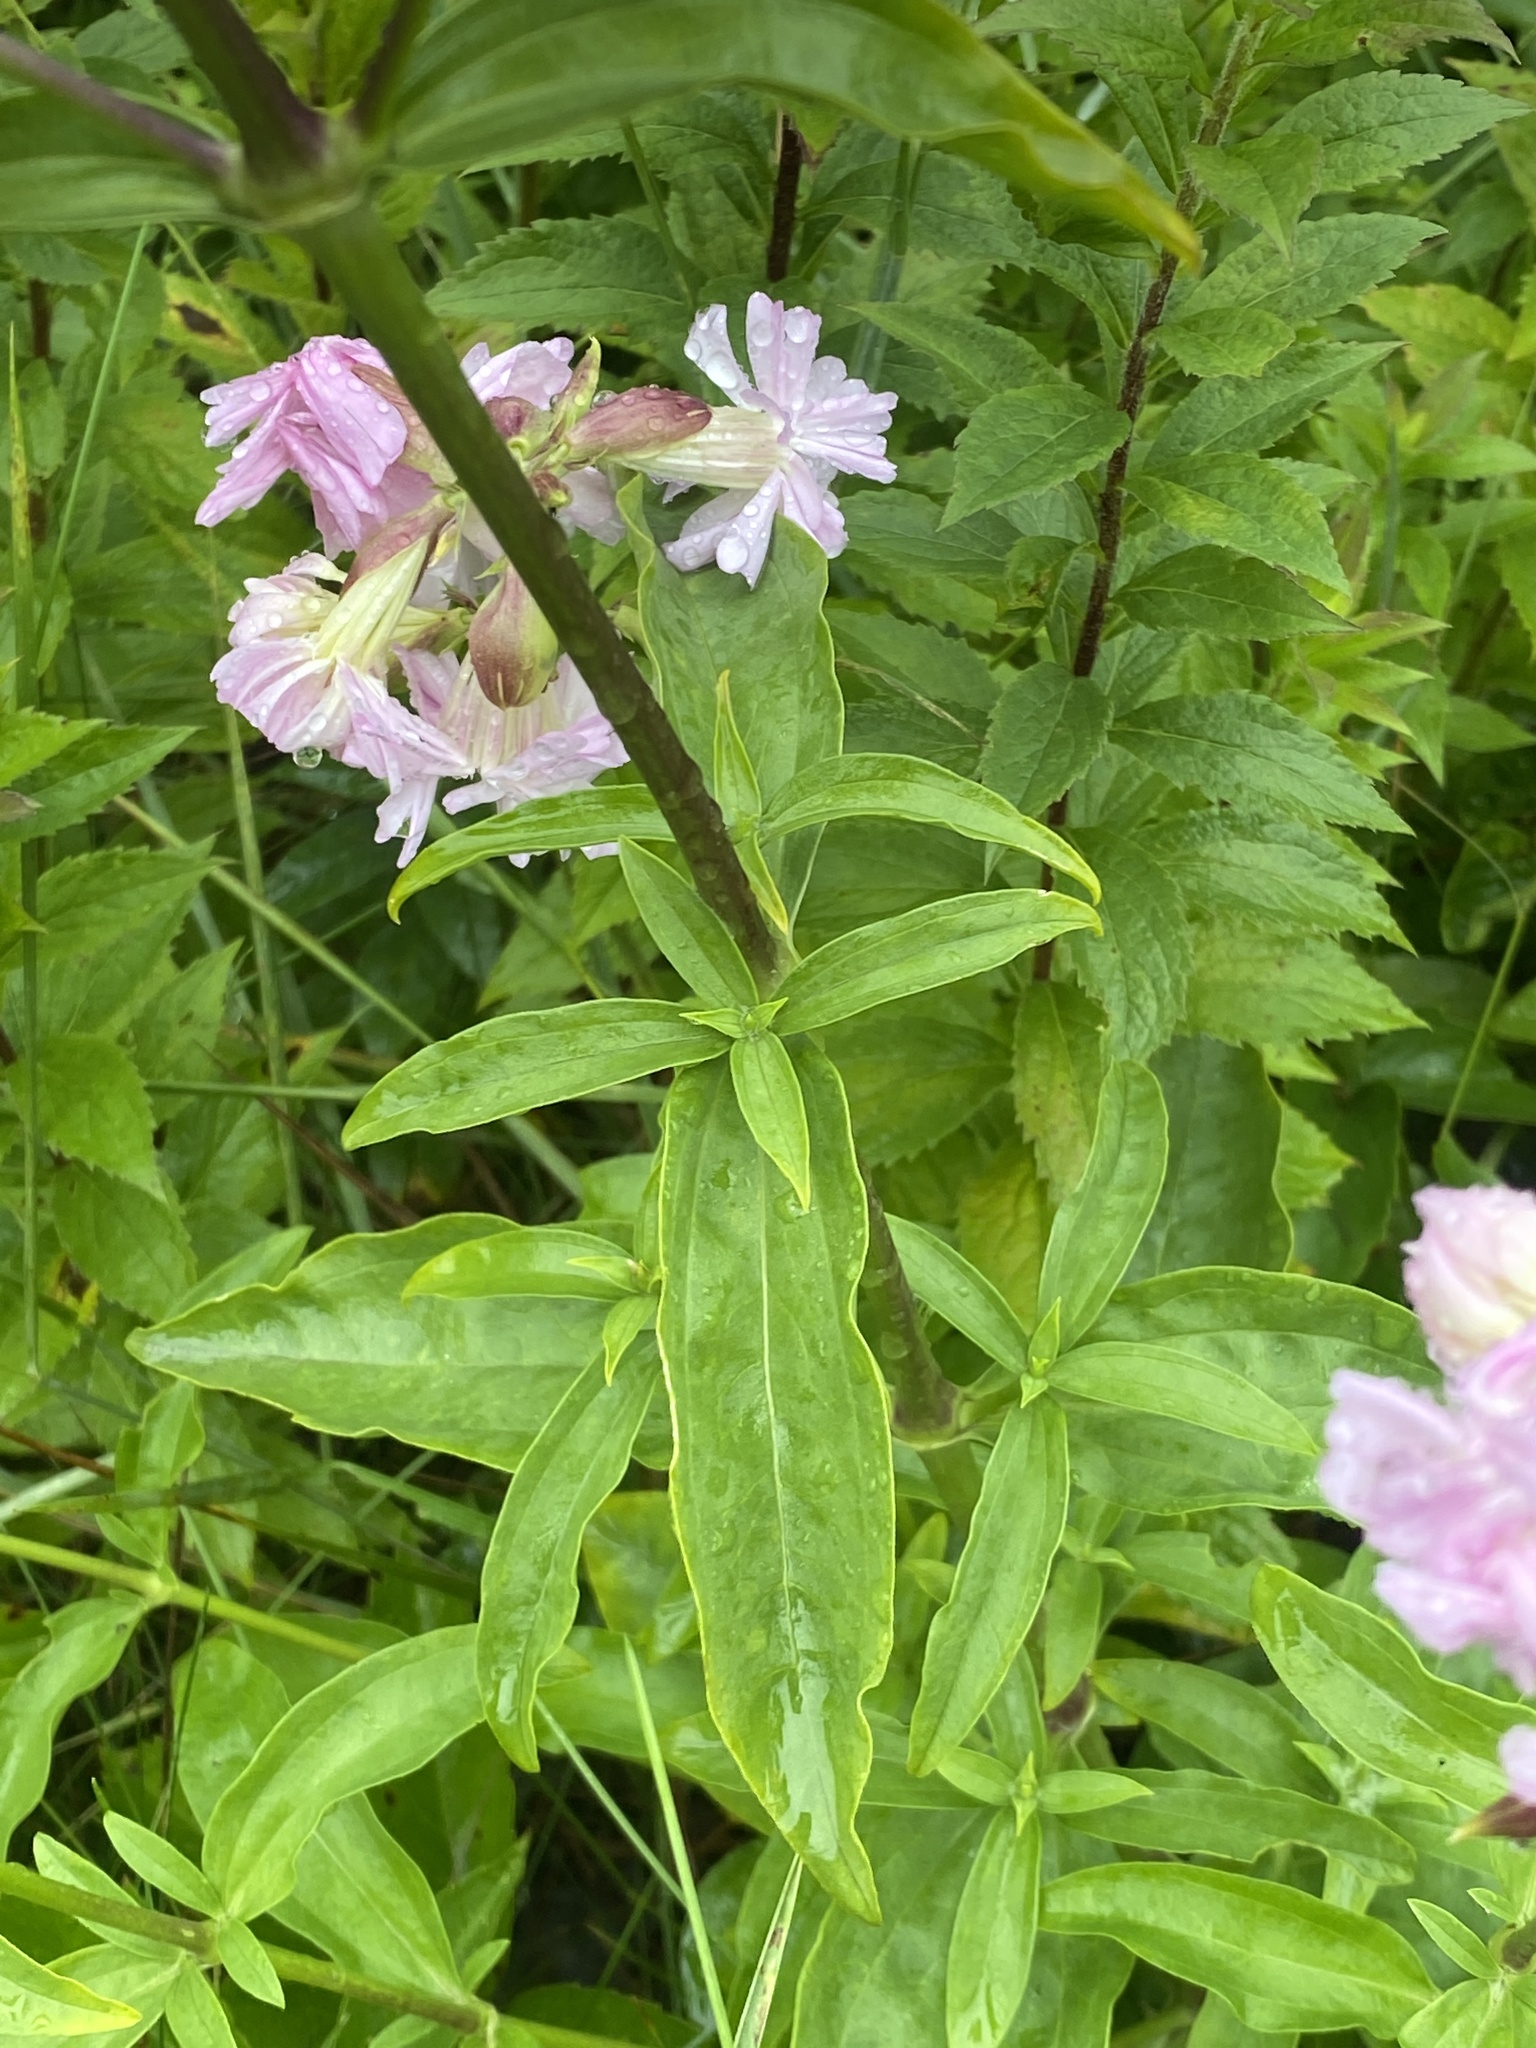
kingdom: Plantae
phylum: Tracheophyta
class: Magnoliopsida
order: Caryophyllales
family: Caryophyllaceae
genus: Saponaria
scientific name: Saponaria officinalis
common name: Soapwort
